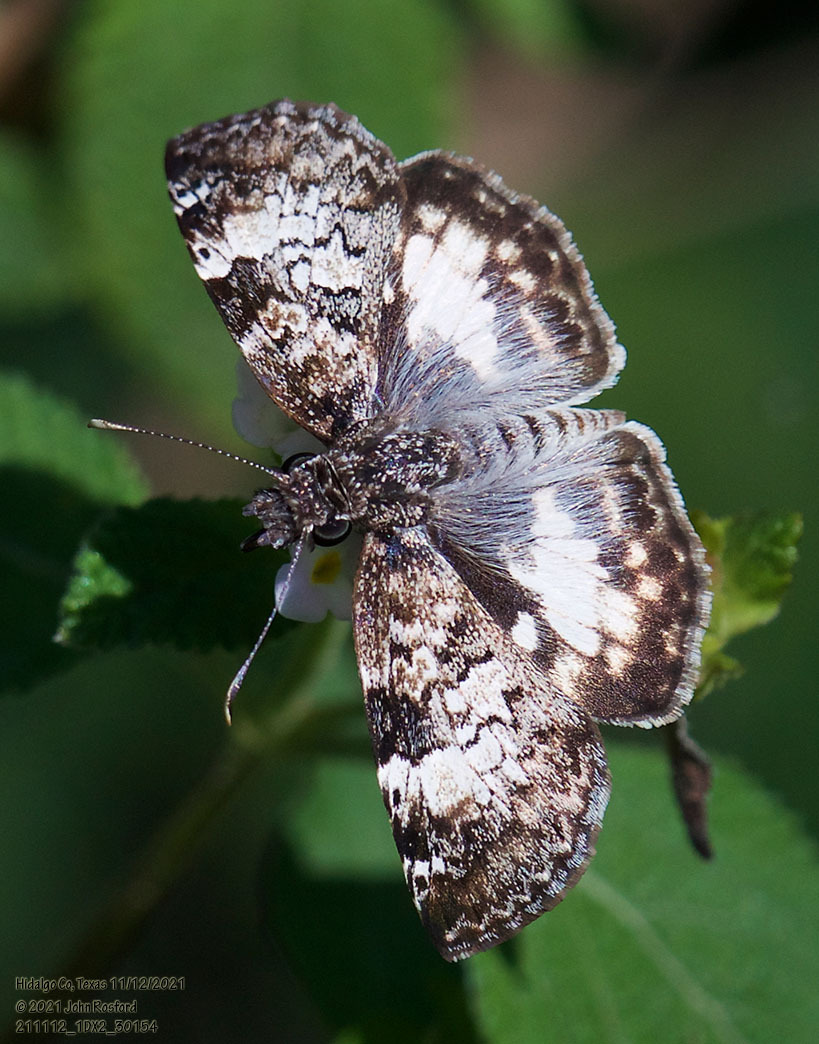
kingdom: Animalia
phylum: Arthropoda
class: Insecta
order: Lepidoptera
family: Hesperiidae
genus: Chiothion
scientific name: Chiothion georgina
